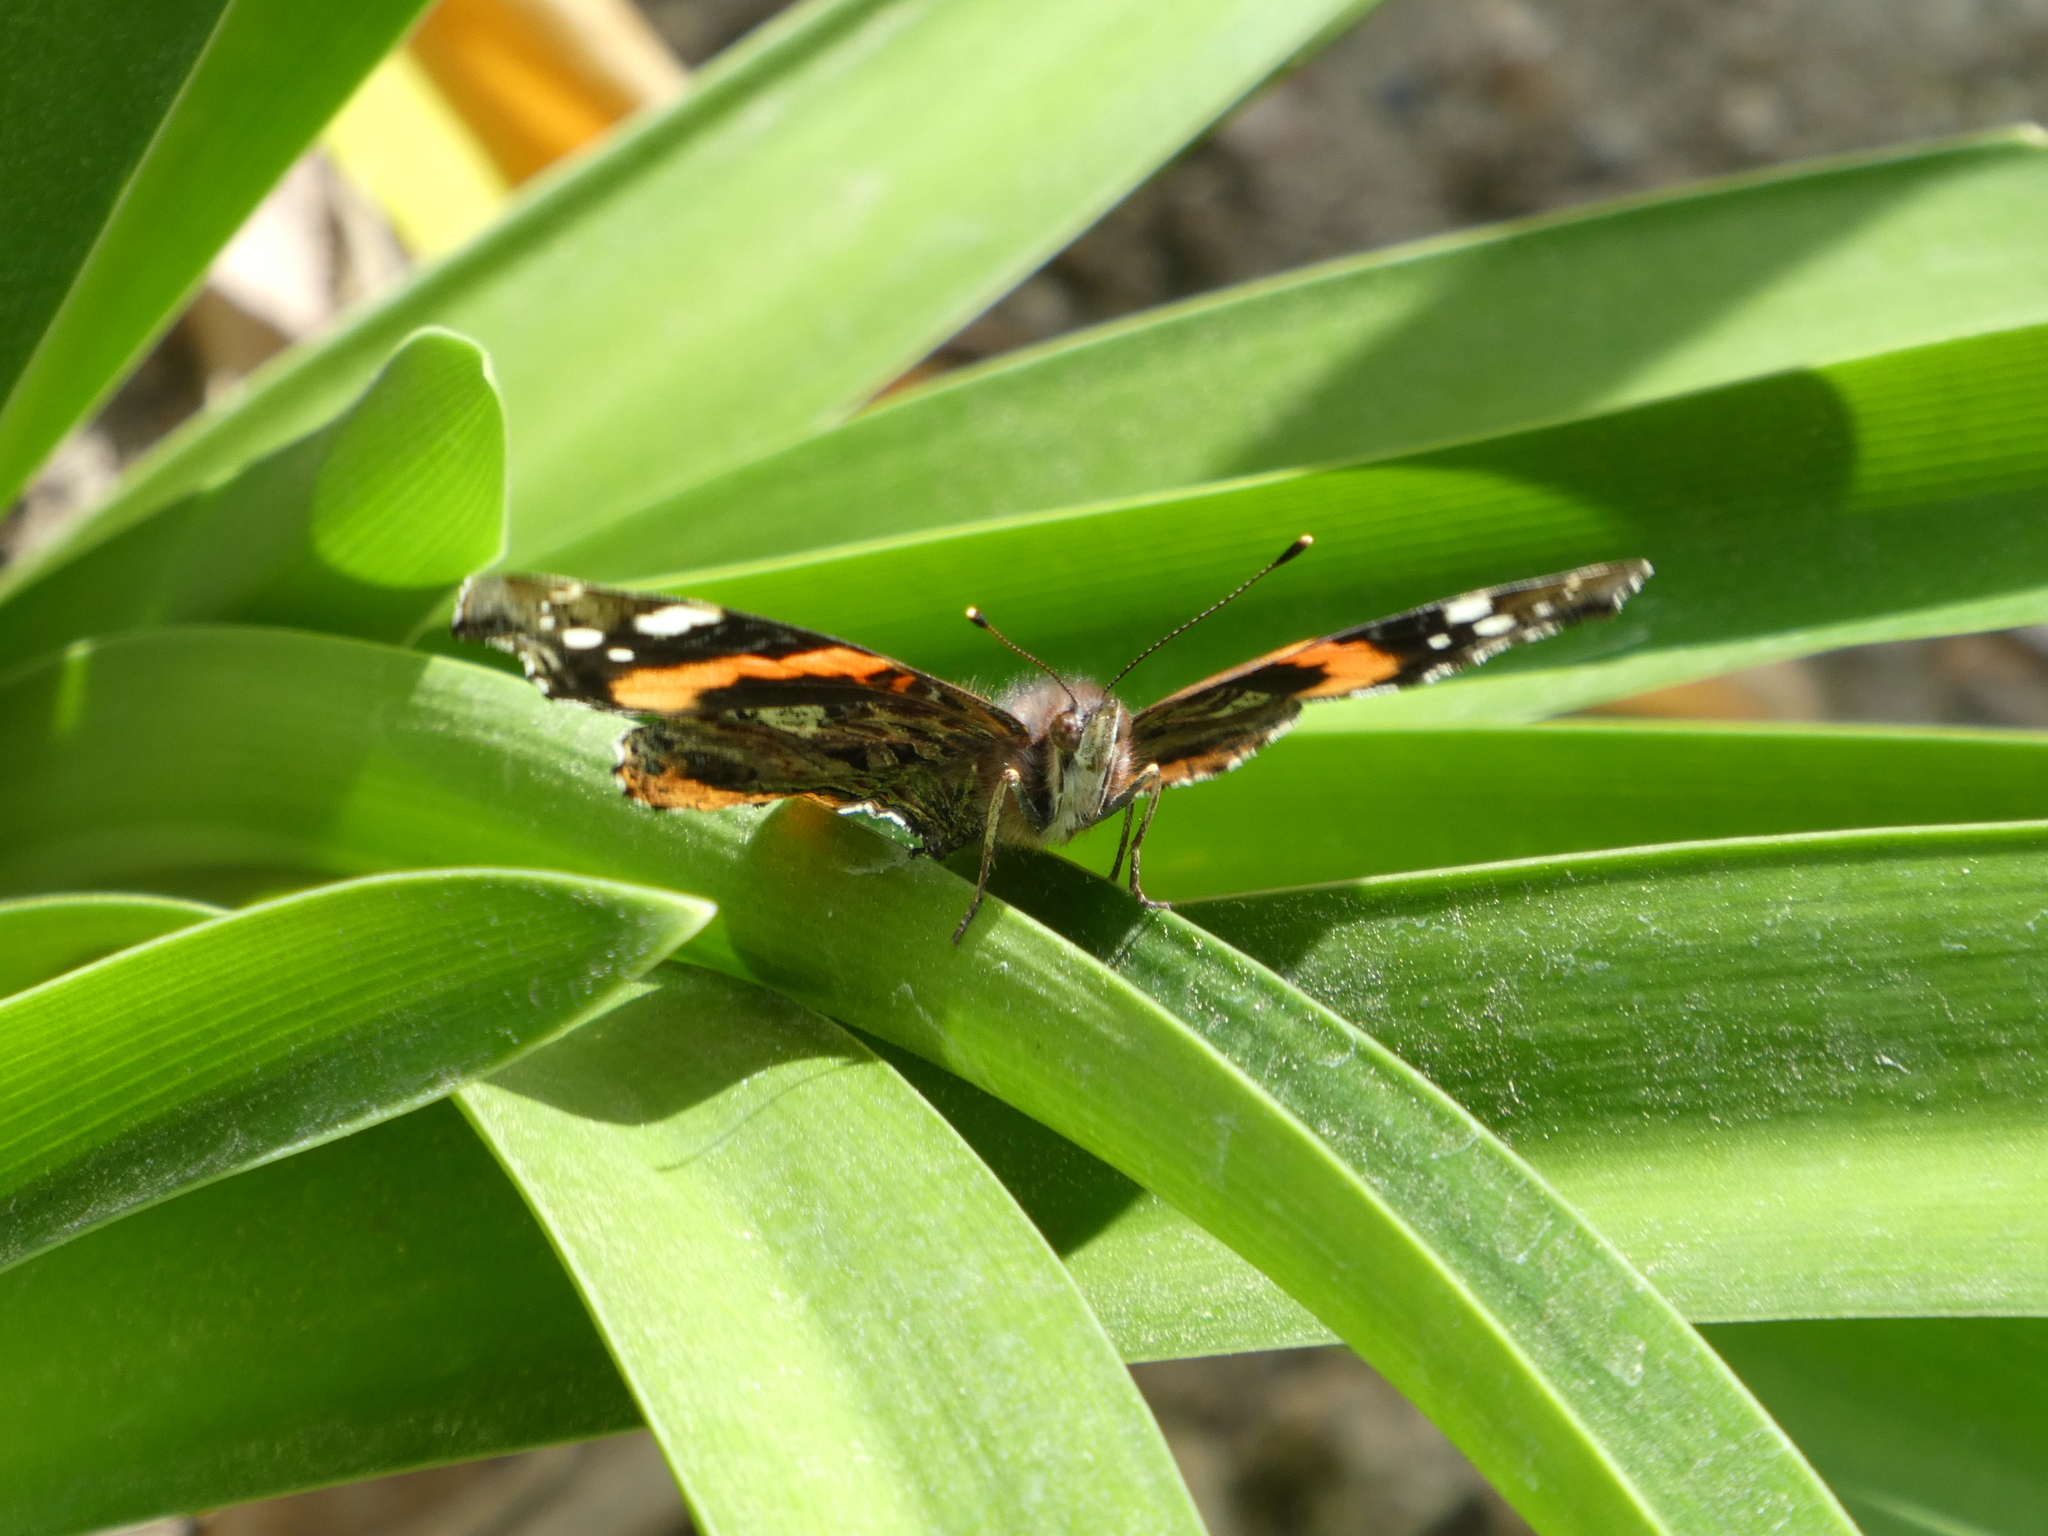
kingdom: Animalia
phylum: Arthropoda
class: Insecta
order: Lepidoptera
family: Nymphalidae
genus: Vanessa
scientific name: Vanessa atalanta
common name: Red admiral
